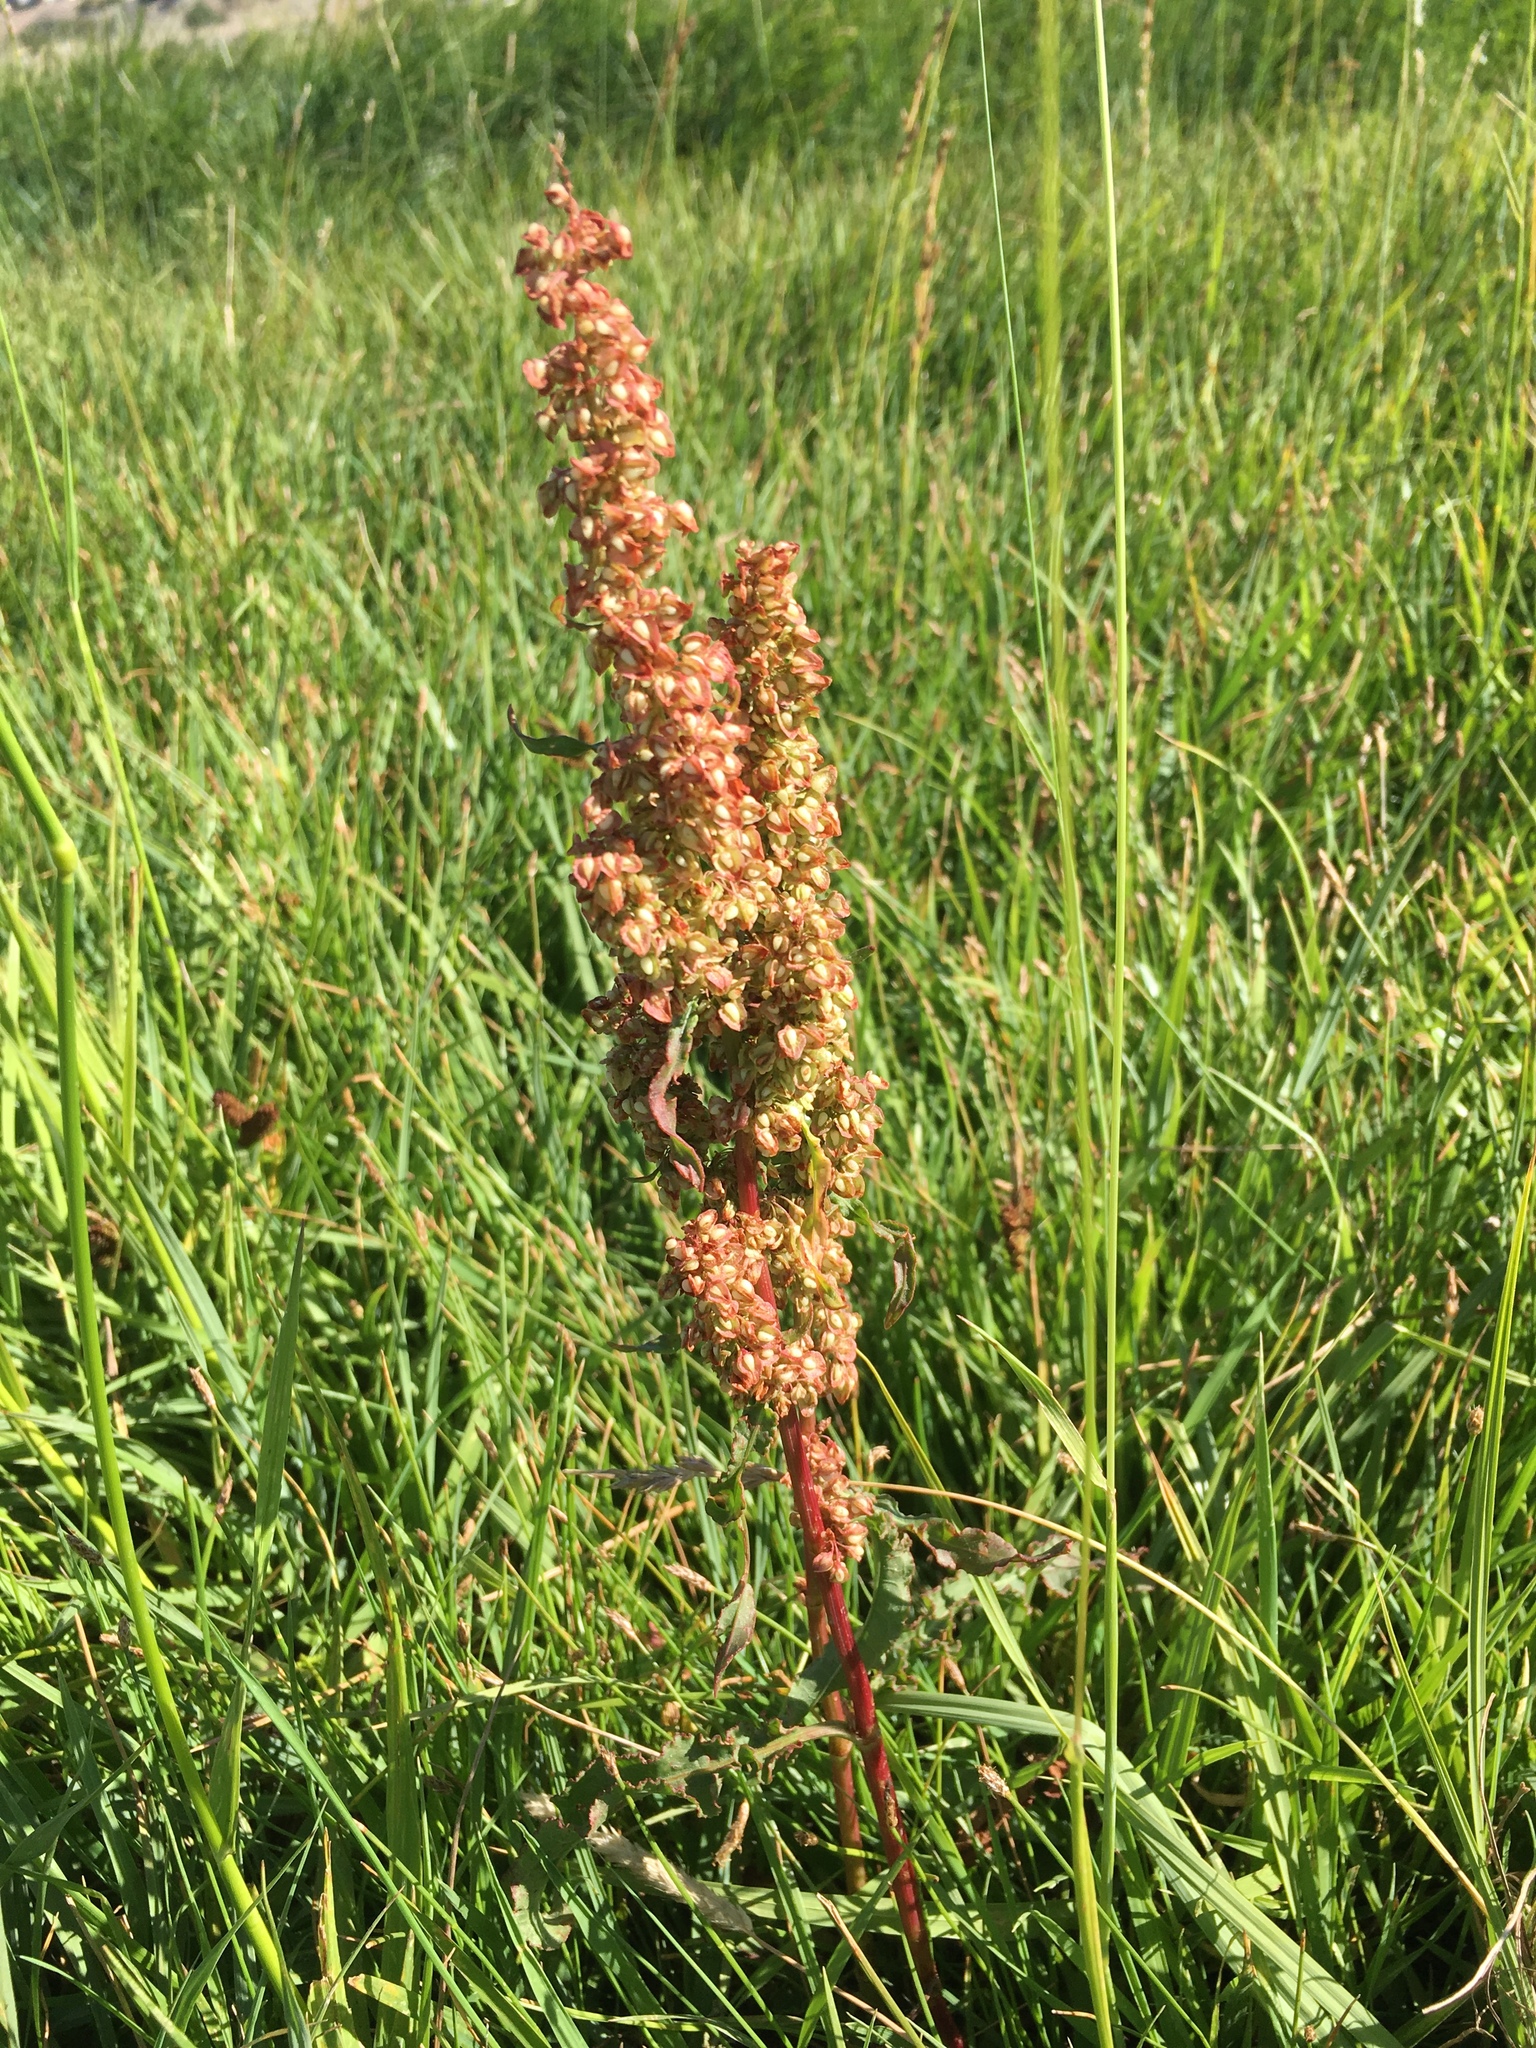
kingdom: Plantae
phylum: Tracheophyta
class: Magnoliopsida
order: Caryophyllales
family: Polygonaceae
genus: Rumex
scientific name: Rumex crispus
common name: Curled dock
